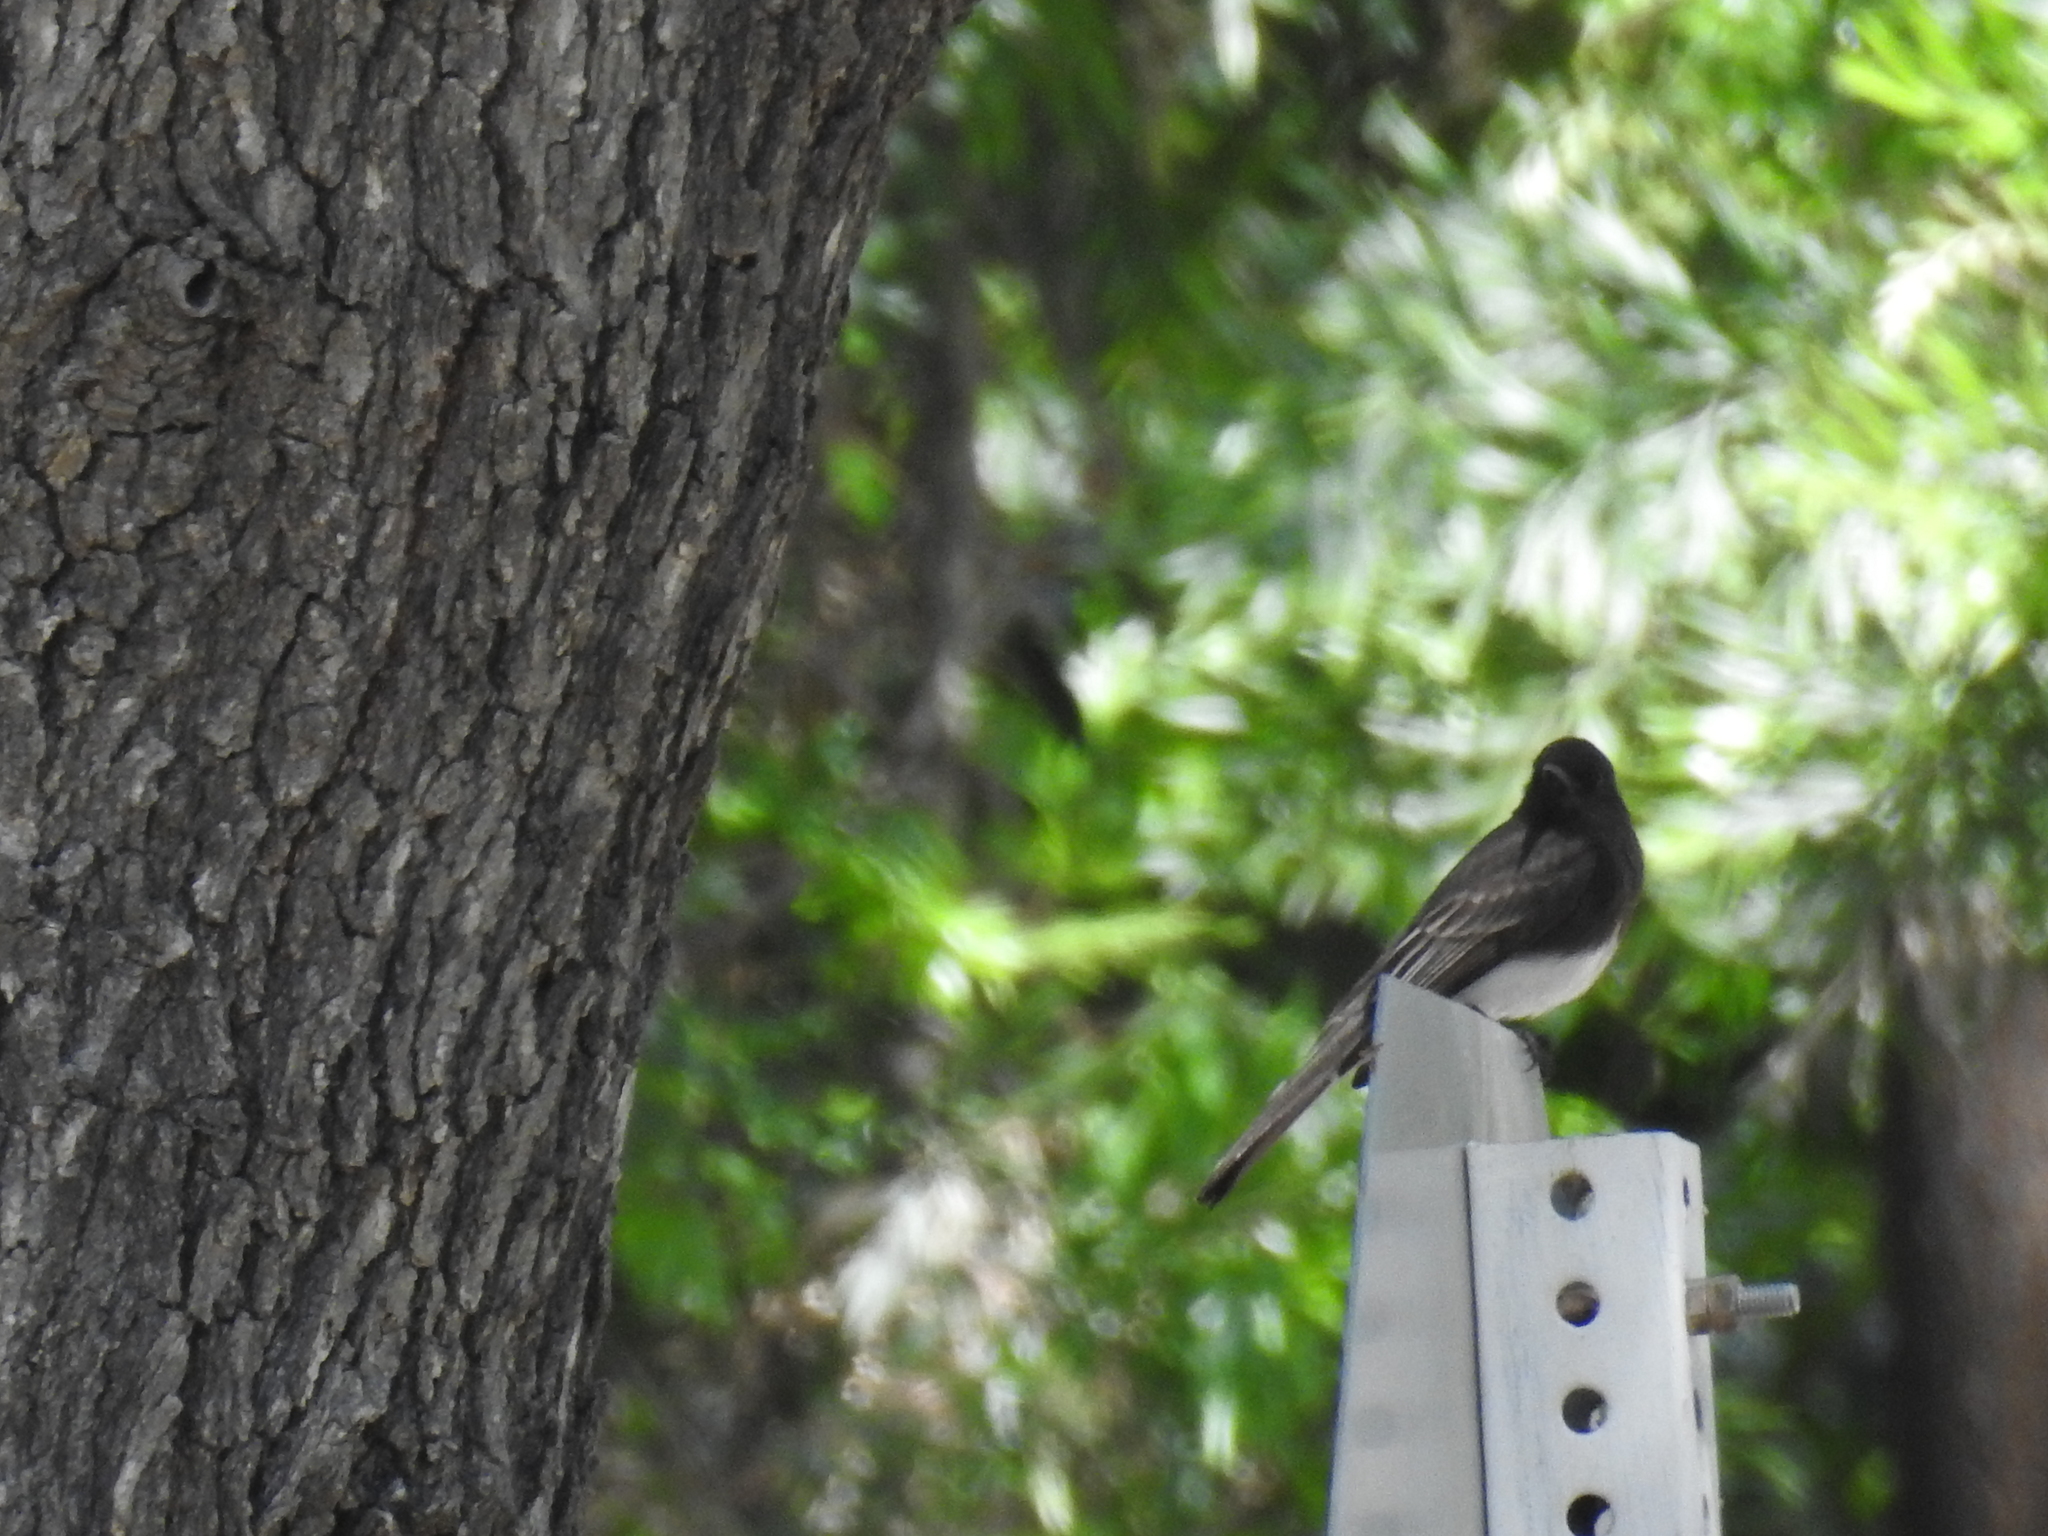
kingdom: Animalia
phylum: Chordata
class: Aves
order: Passeriformes
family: Tyrannidae
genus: Sayornis
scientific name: Sayornis nigricans
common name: Black phoebe
